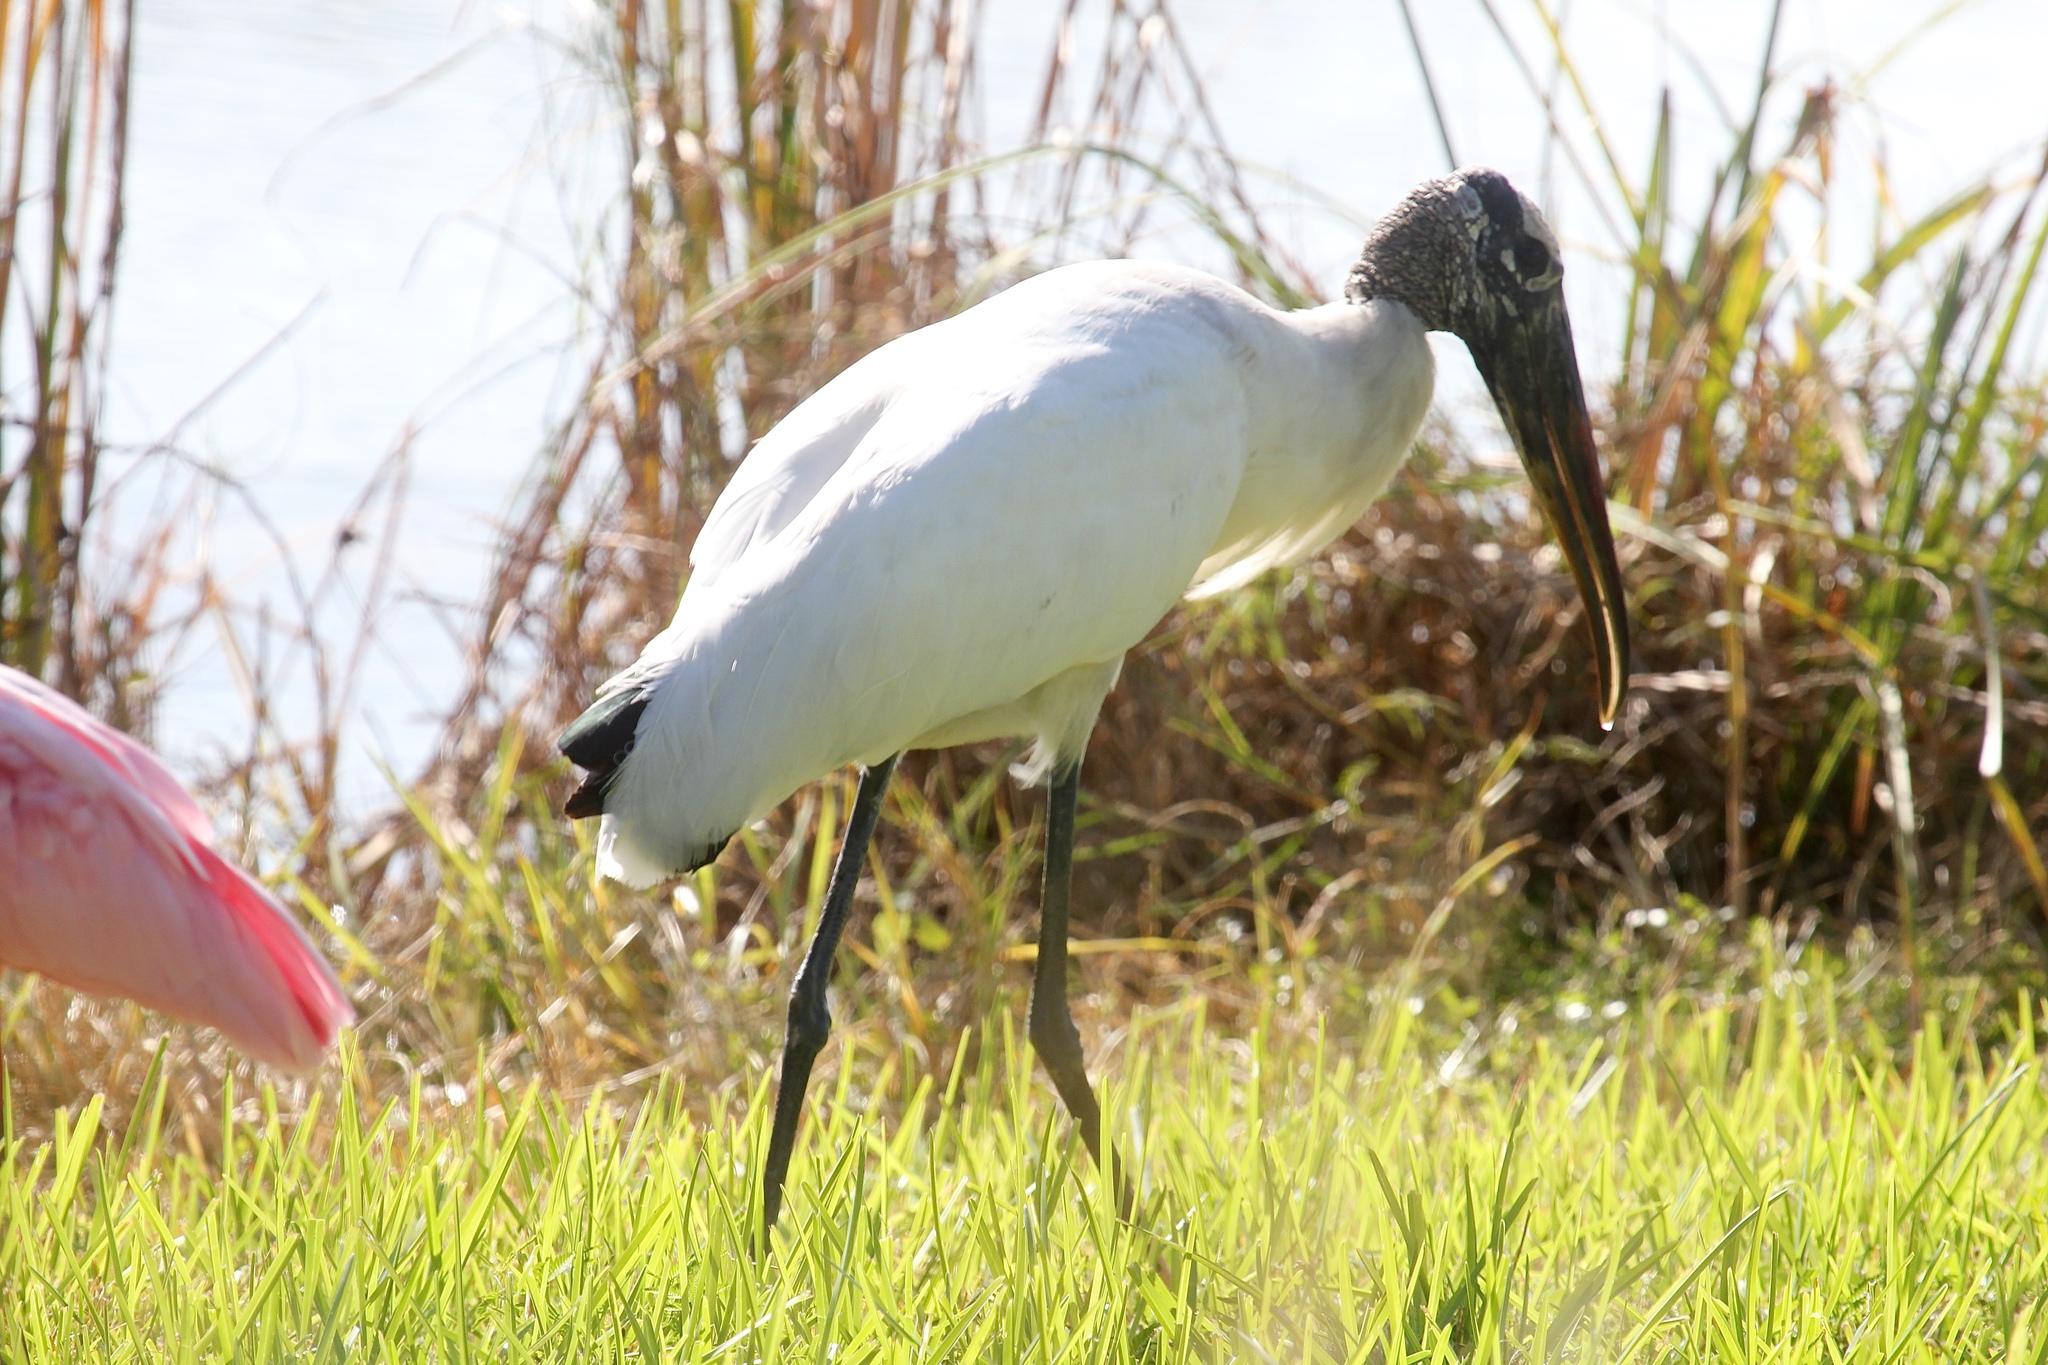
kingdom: Animalia
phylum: Chordata
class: Aves
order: Ciconiiformes
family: Ciconiidae
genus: Mycteria
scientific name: Mycteria americana
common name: Wood stork
